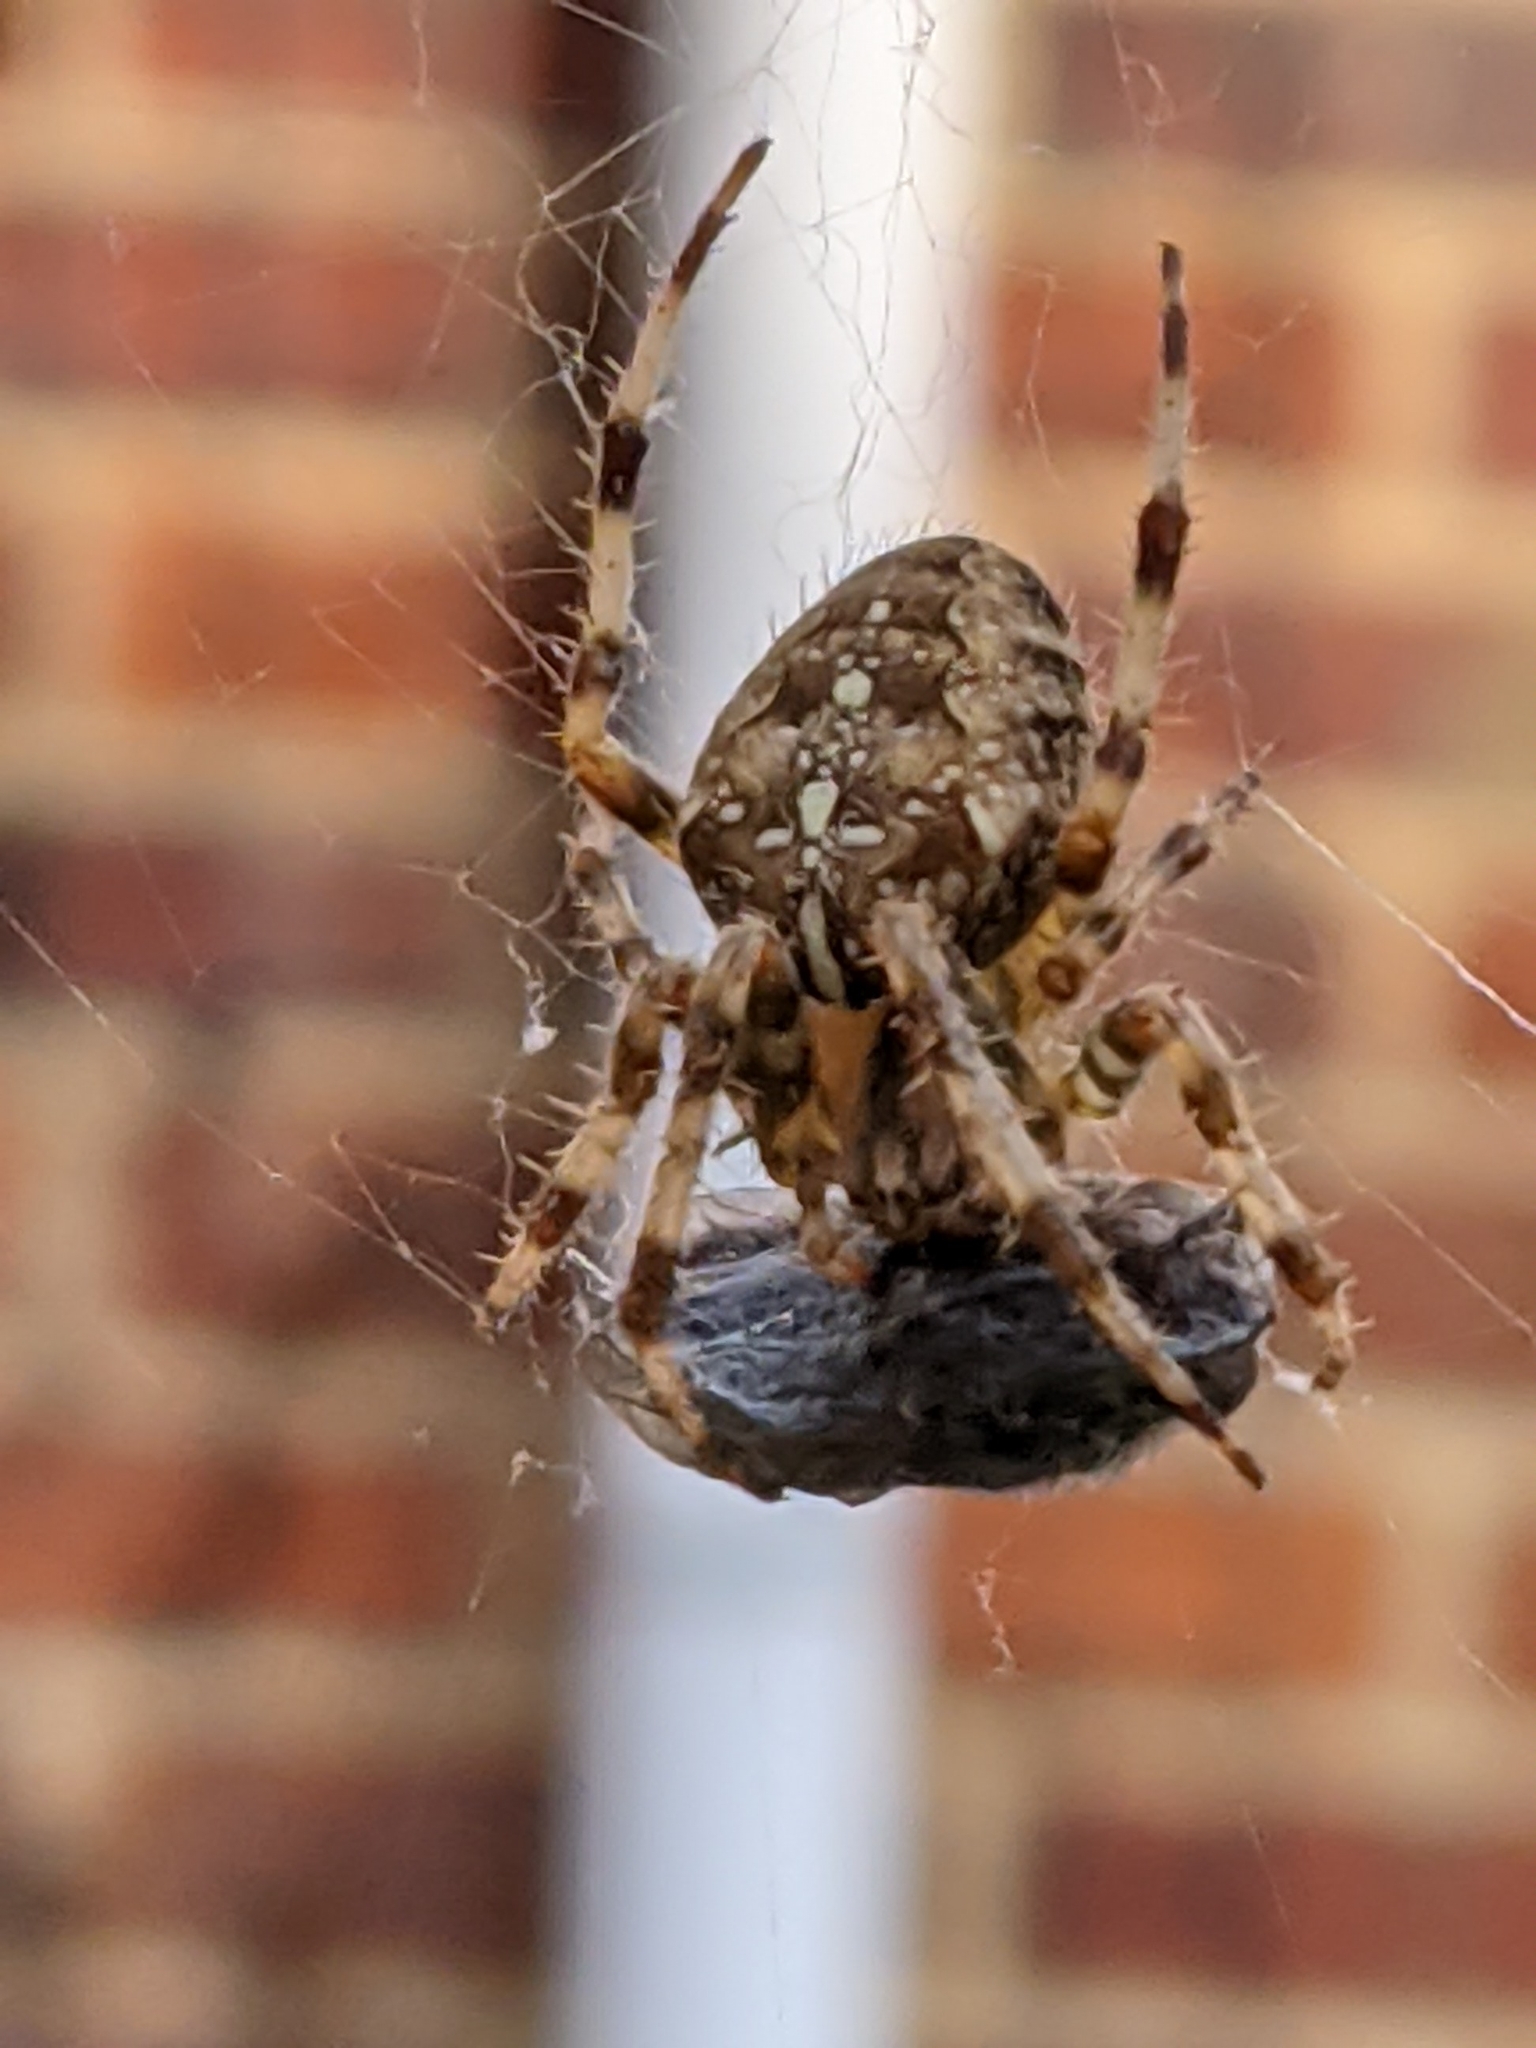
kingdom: Animalia
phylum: Arthropoda
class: Arachnida
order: Araneae
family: Araneidae
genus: Araneus
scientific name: Araneus diadematus
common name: Cross orbweaver
